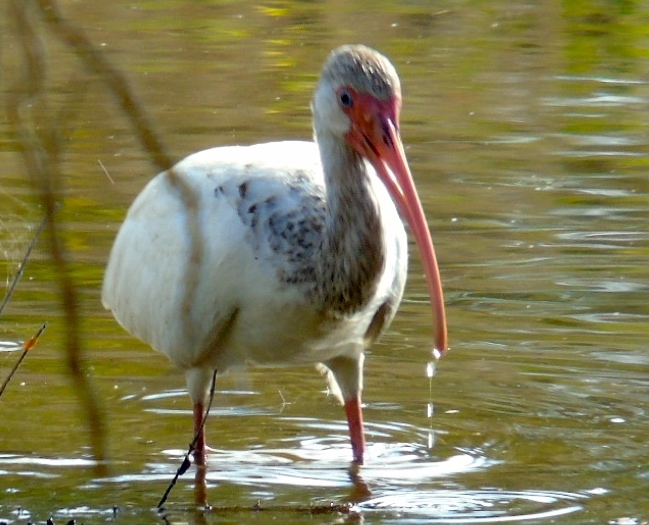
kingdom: Animalia
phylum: Chordata
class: Aves
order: Pelecaniformes
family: Threskiornithidae
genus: Eudocimus
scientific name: Eudocimus albus
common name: White ibis
